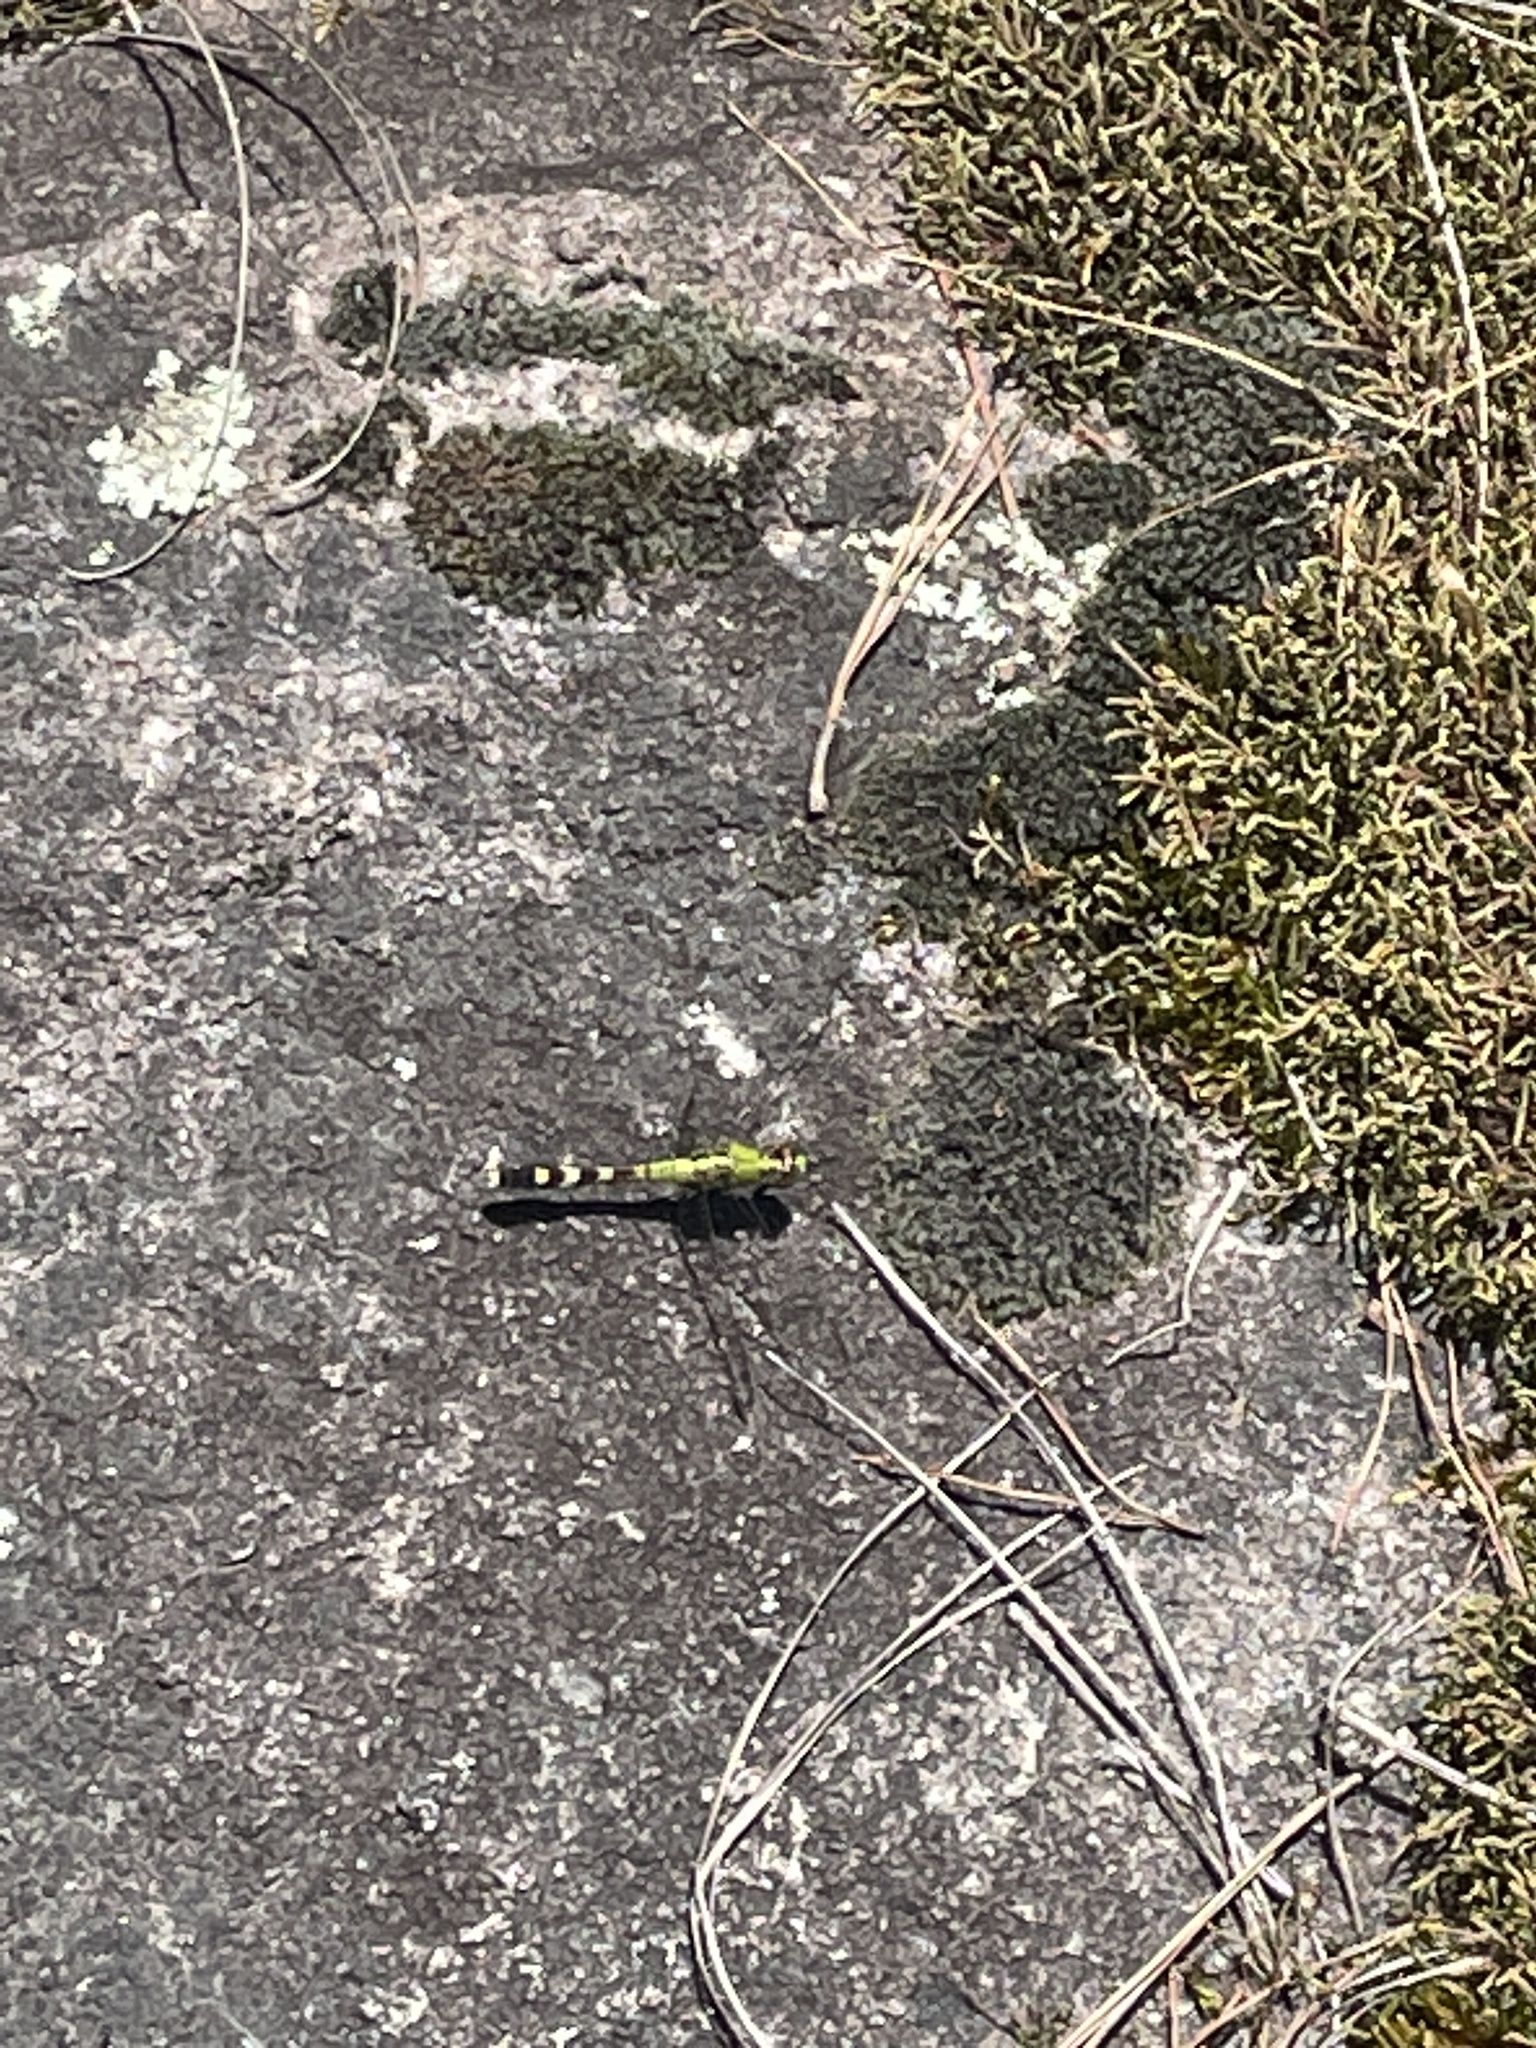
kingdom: Animalia
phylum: Arthropoda
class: Insecta
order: Odonata
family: Libellulidae
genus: Erythemis
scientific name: Erythemis simplicicollis
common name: Eastern pondhawk
